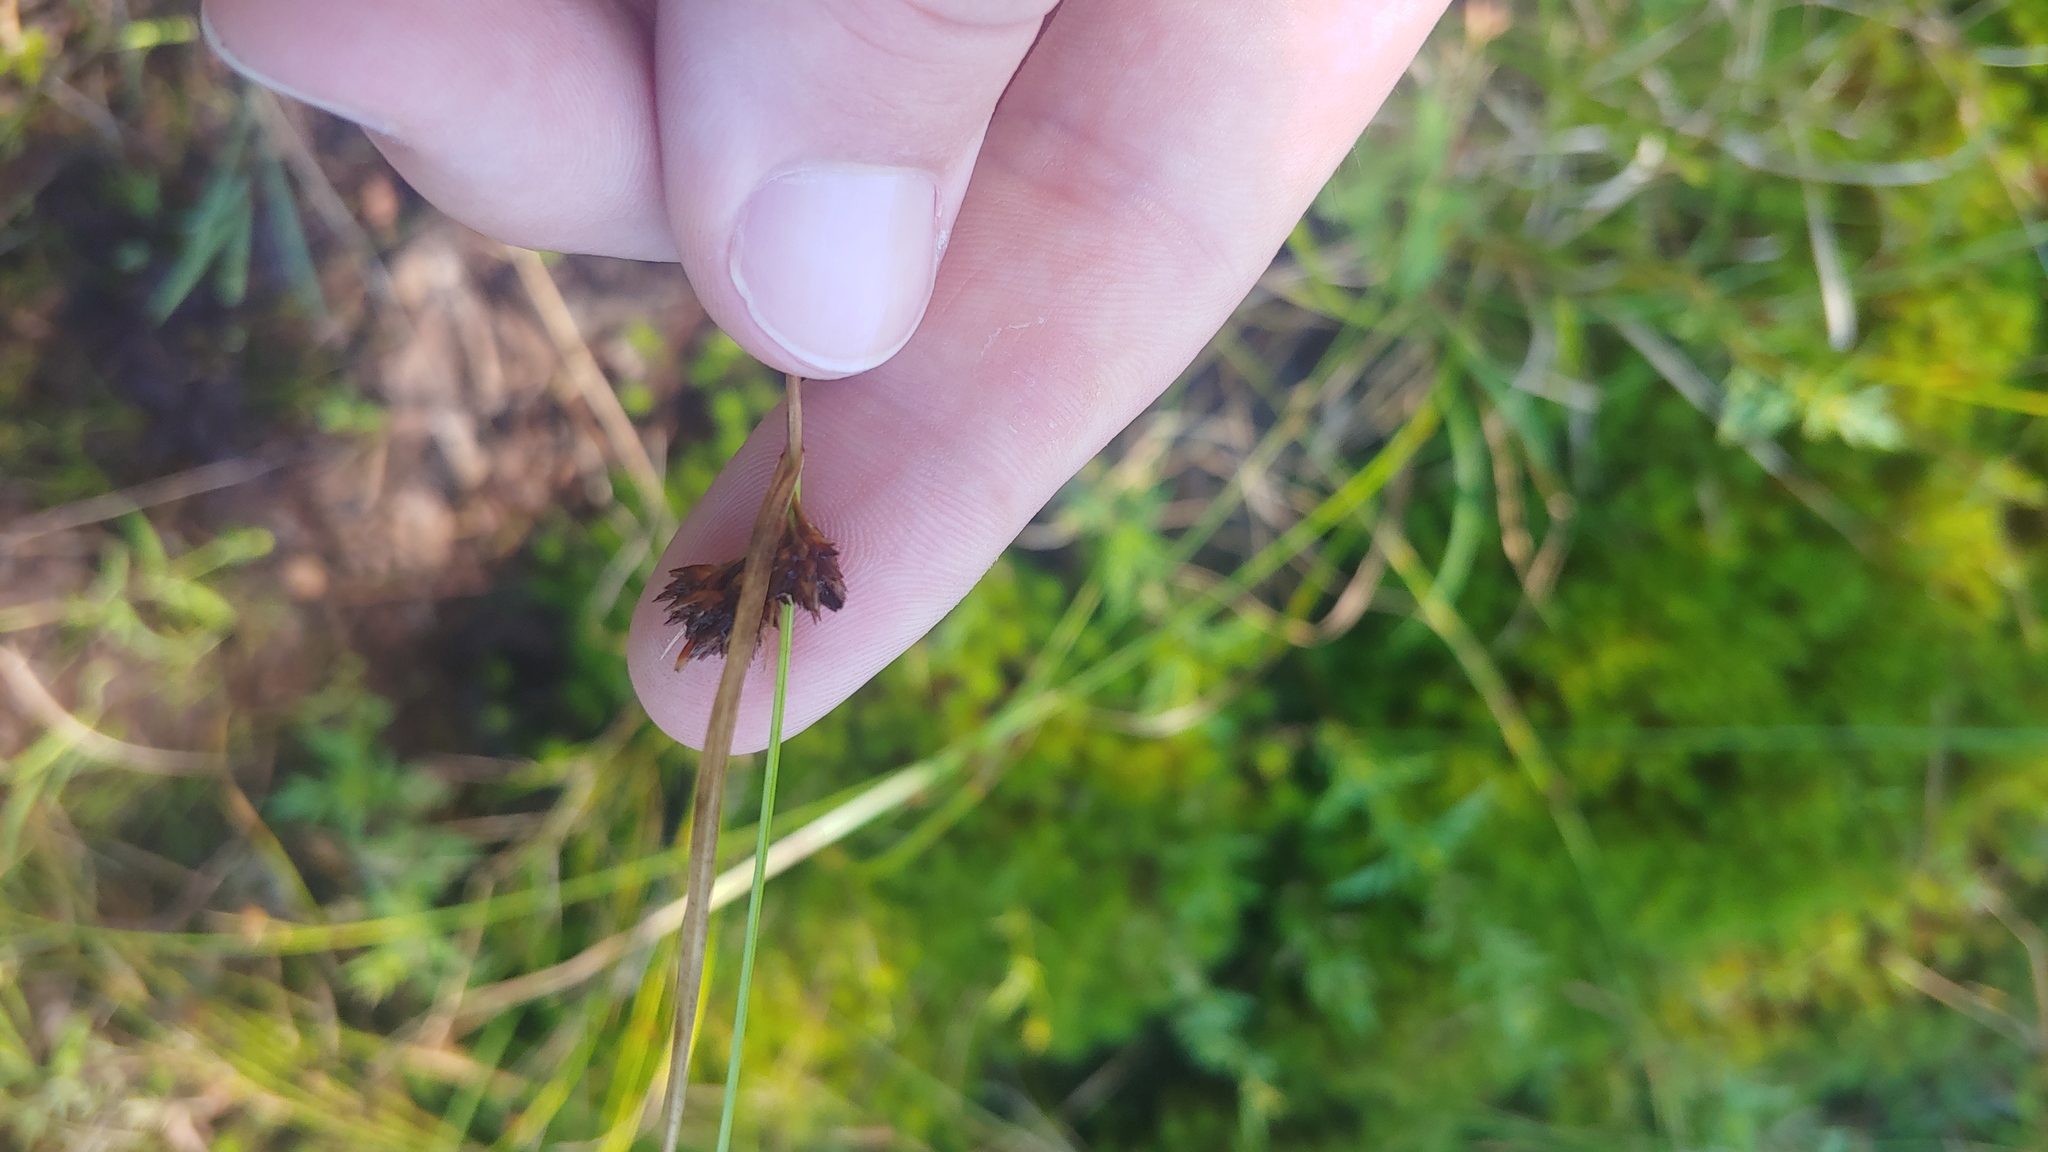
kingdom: Plantae
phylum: Tracheophyta
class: Liliopsida
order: Poales
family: Cyperaceae
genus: Rhynchospora
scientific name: Rhynchospora capitellata
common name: Brownish beaksedge
